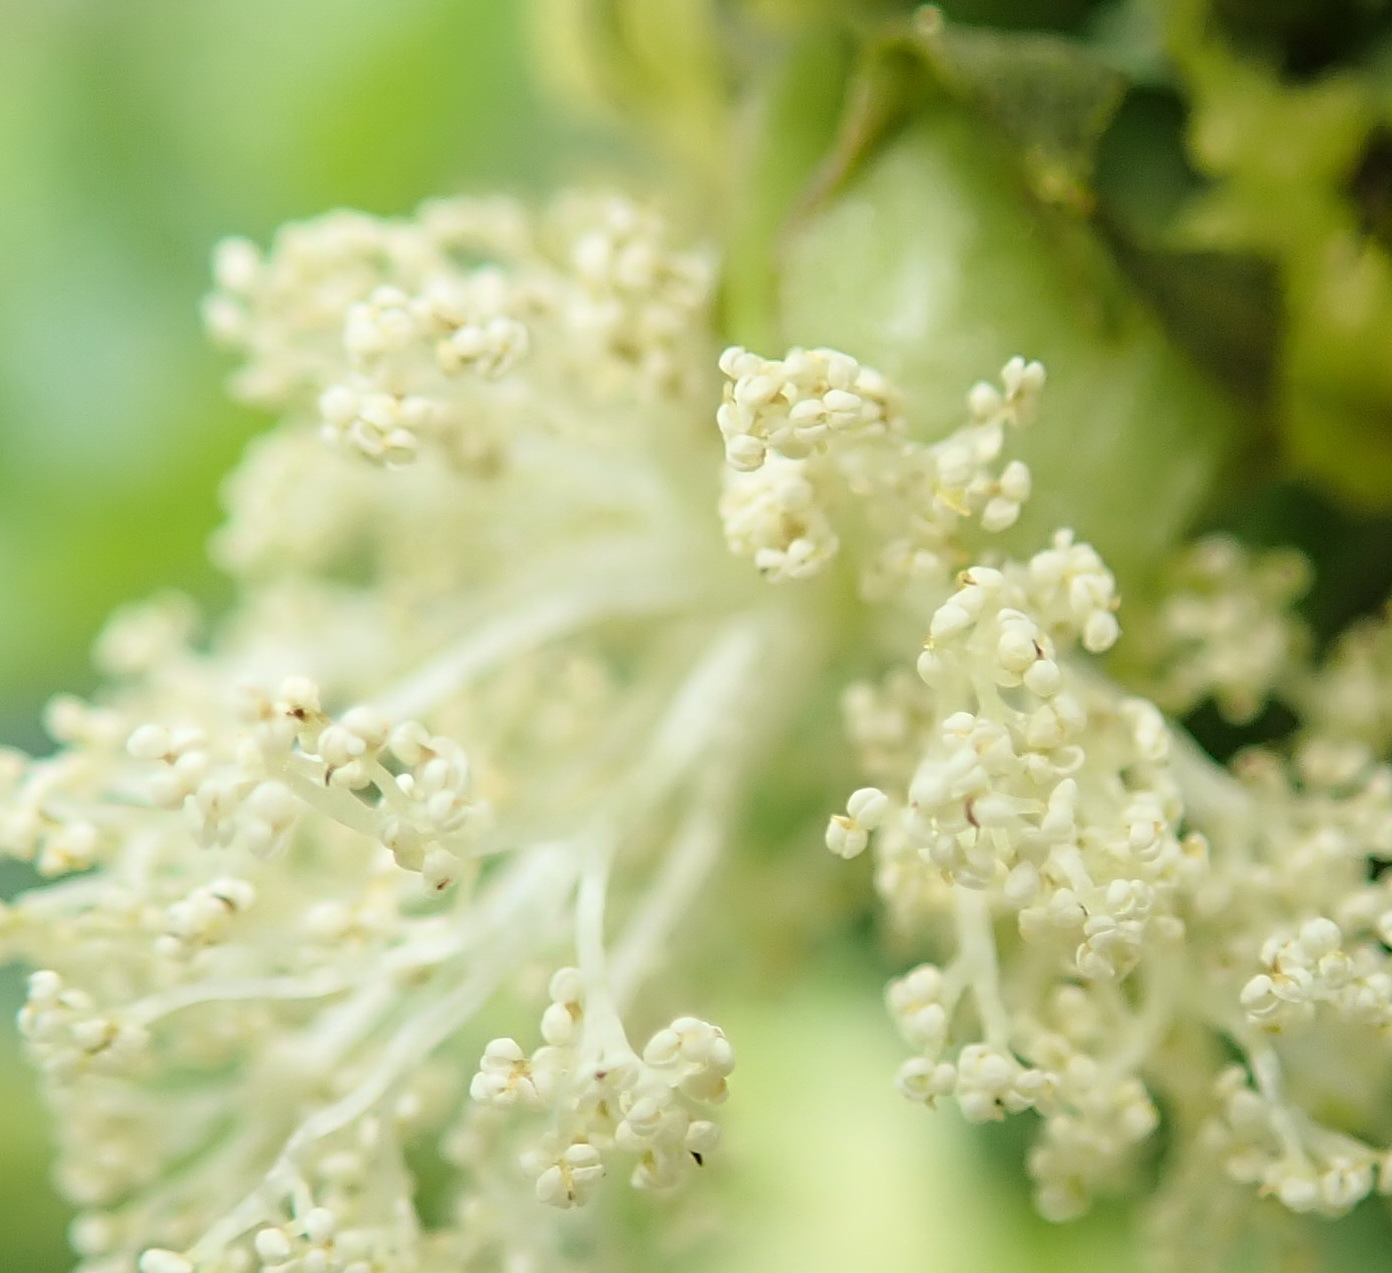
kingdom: Plantae
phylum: Tracheophyta
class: Magnoliopsida
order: Malpighiales
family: Euphorbiaceae
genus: Ricinus
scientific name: Ricinus communis
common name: Castor-oil-plant
